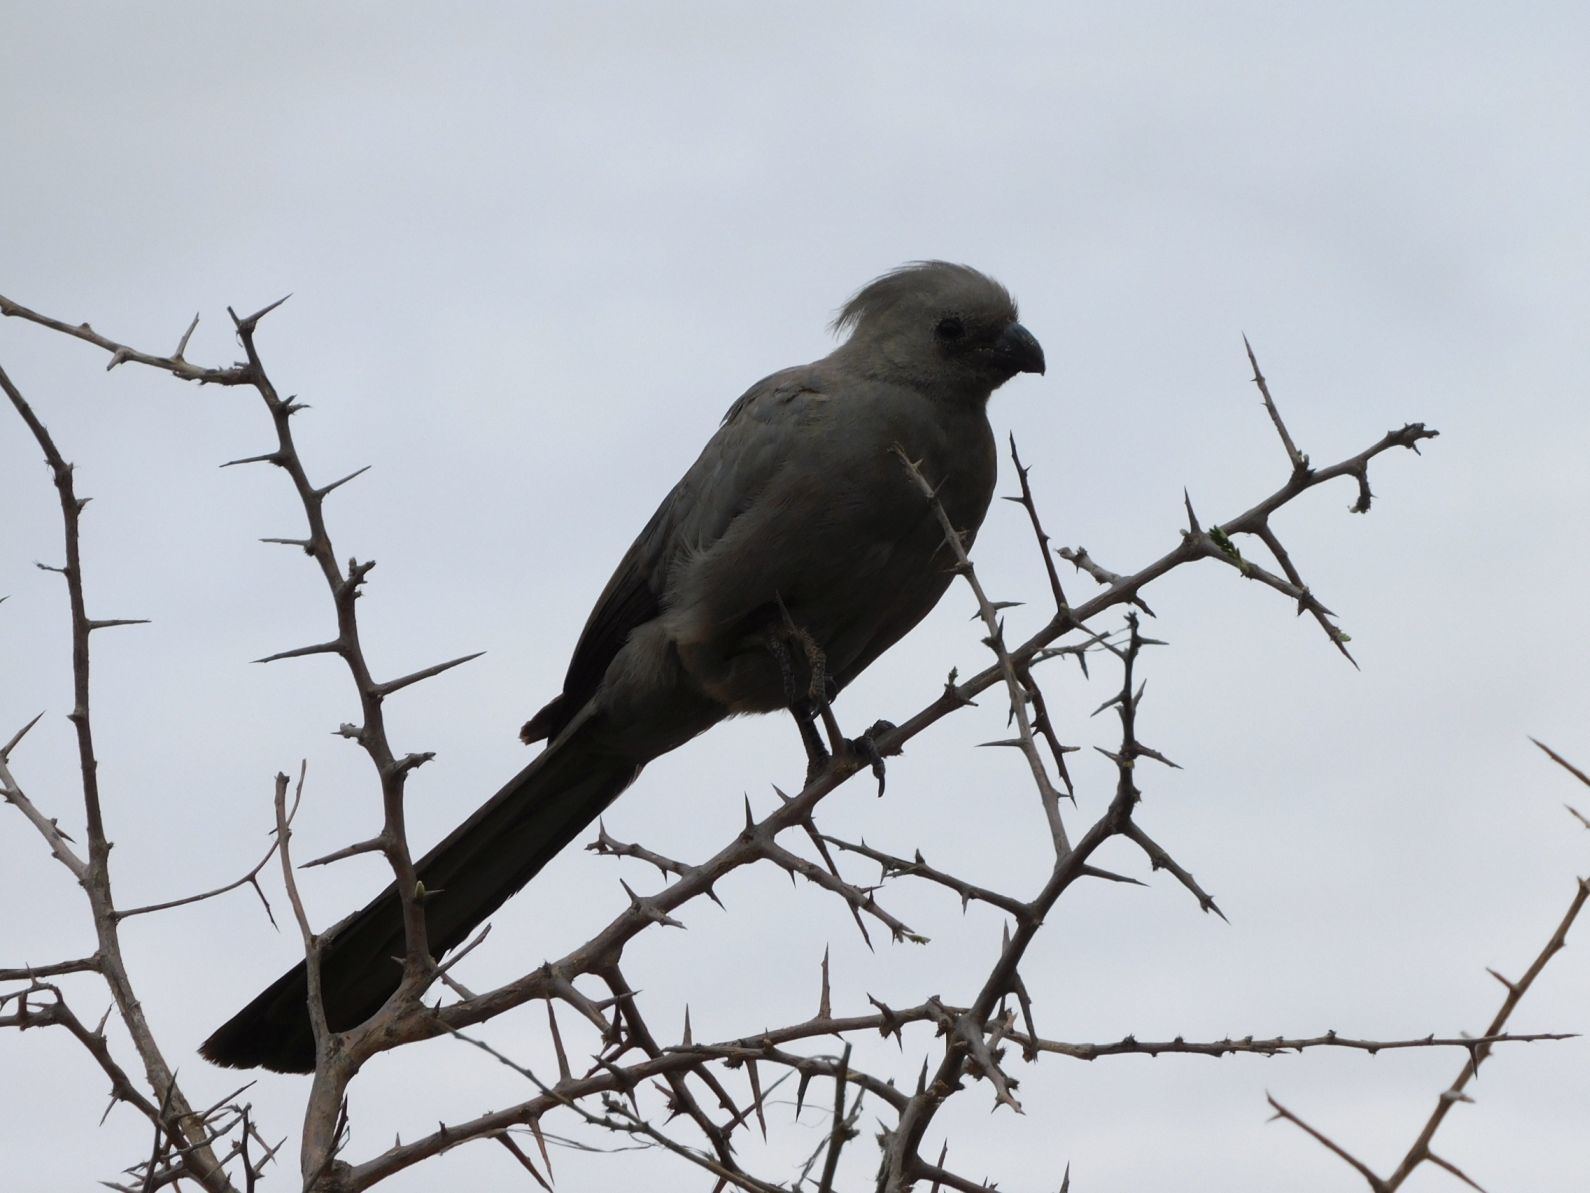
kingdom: Animalia
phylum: Chordata
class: Aves
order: Musophagiformes
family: Musophagidae
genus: Corythaixoides
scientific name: Corythaixoides concolor
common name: Grey go-away-bird
